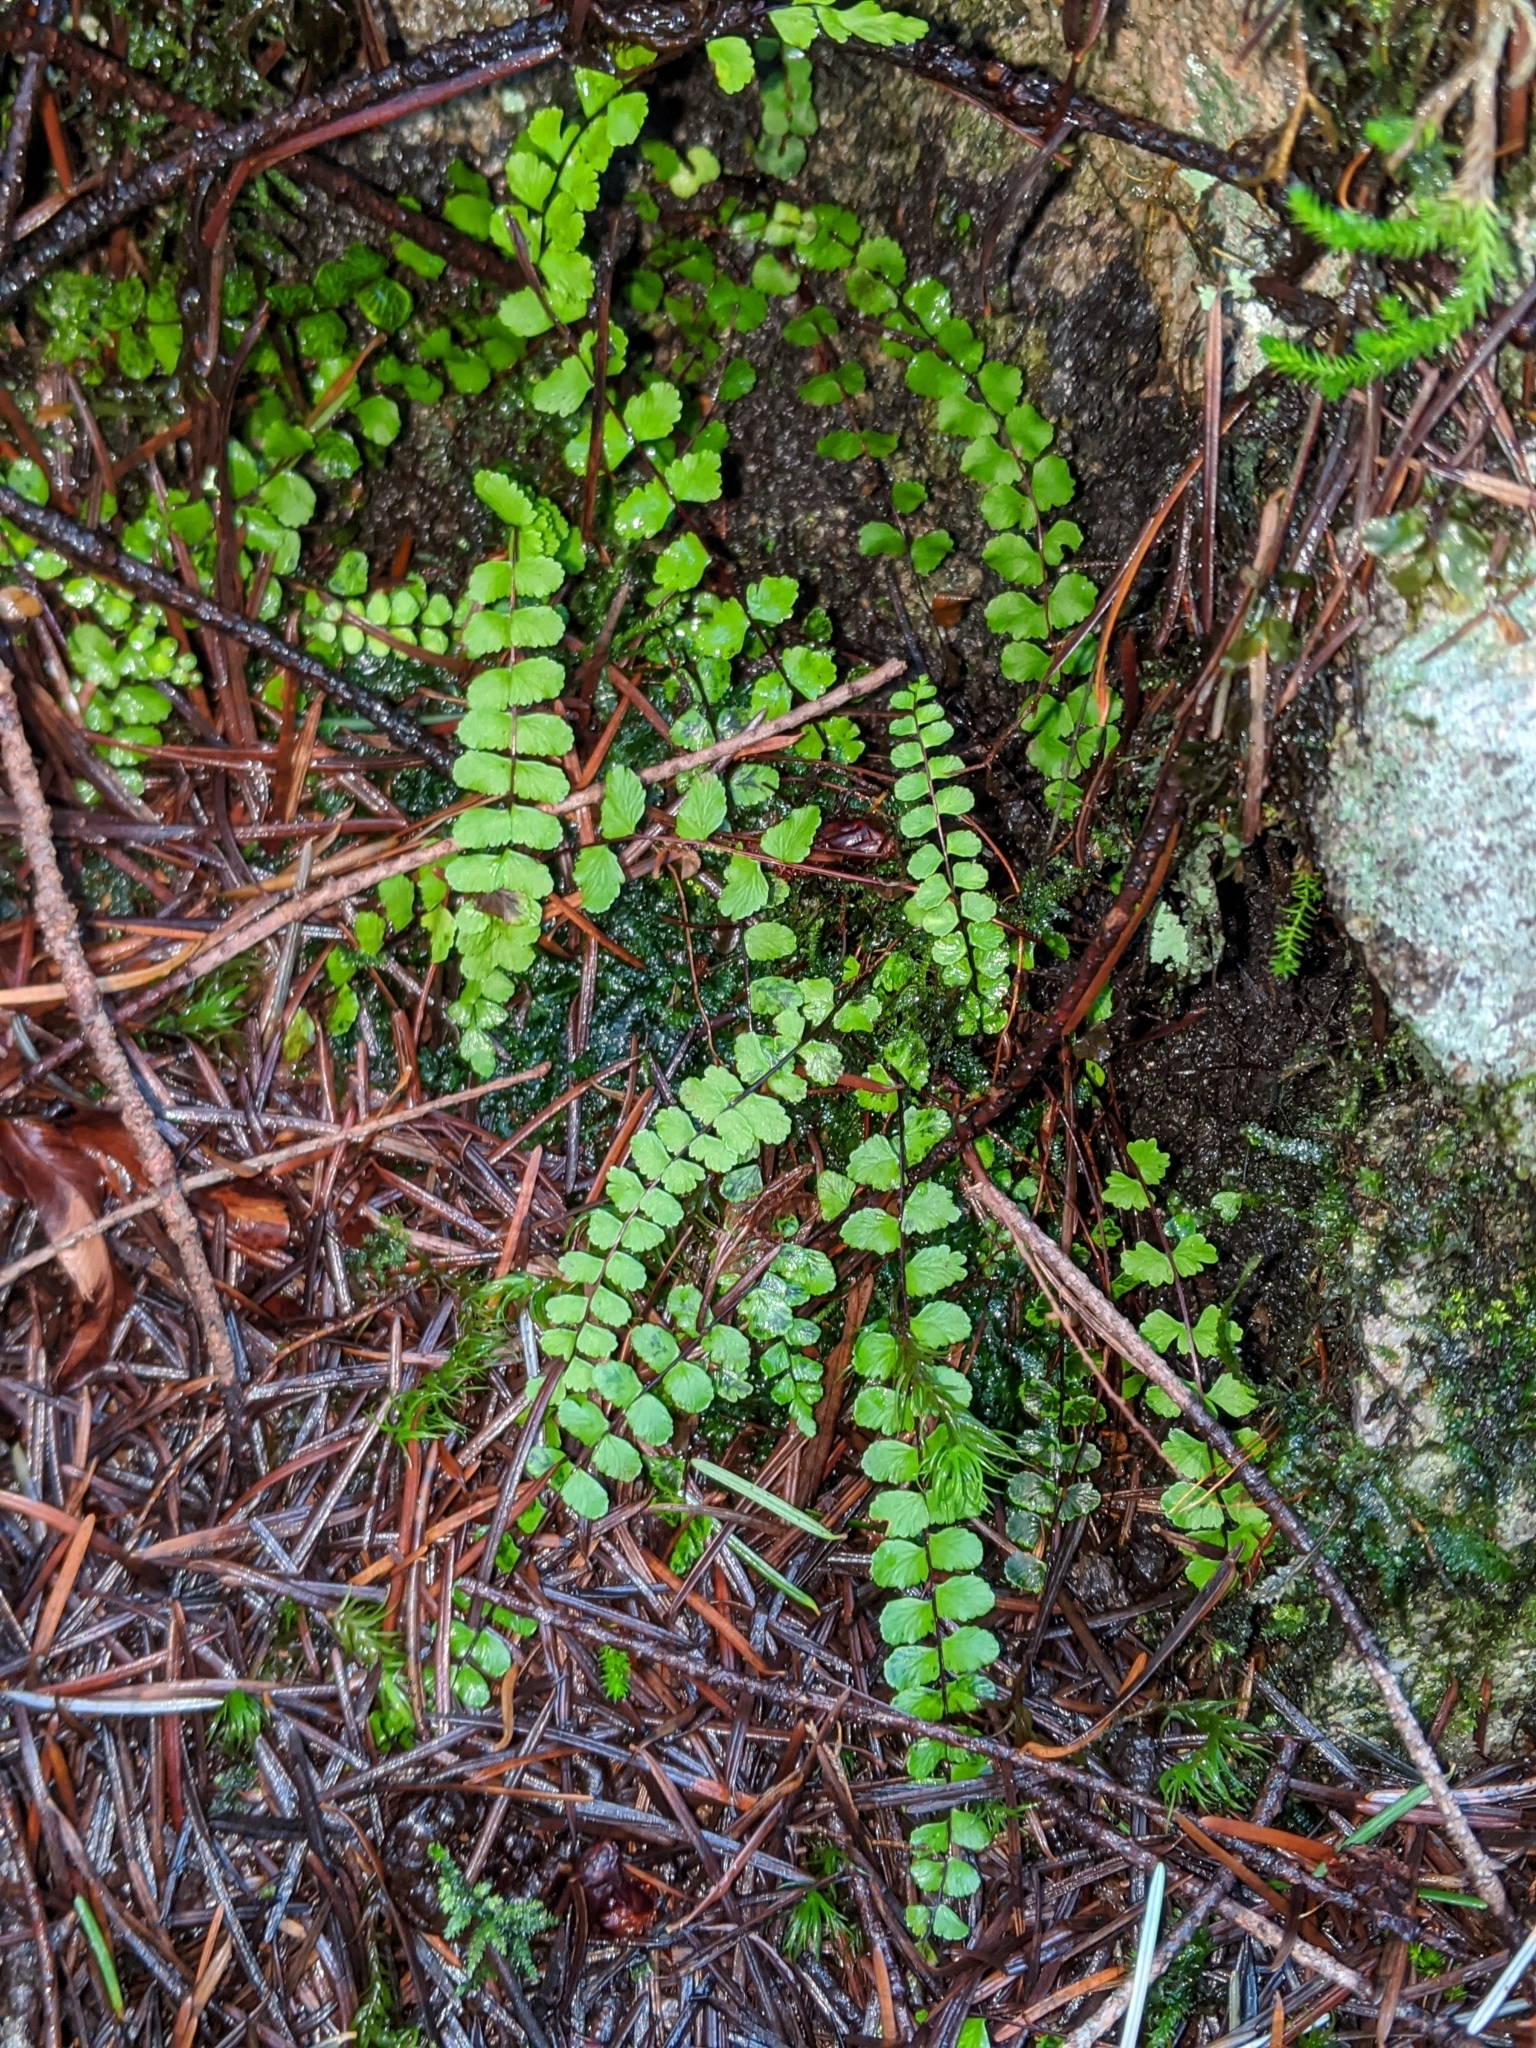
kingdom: Plantae
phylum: Tracheophyta
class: Polypodiopsida
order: Polypodiales
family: Aspleniaceae
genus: Asplenium
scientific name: Asplenium trichomanes
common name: Maidenhair spleenwort
